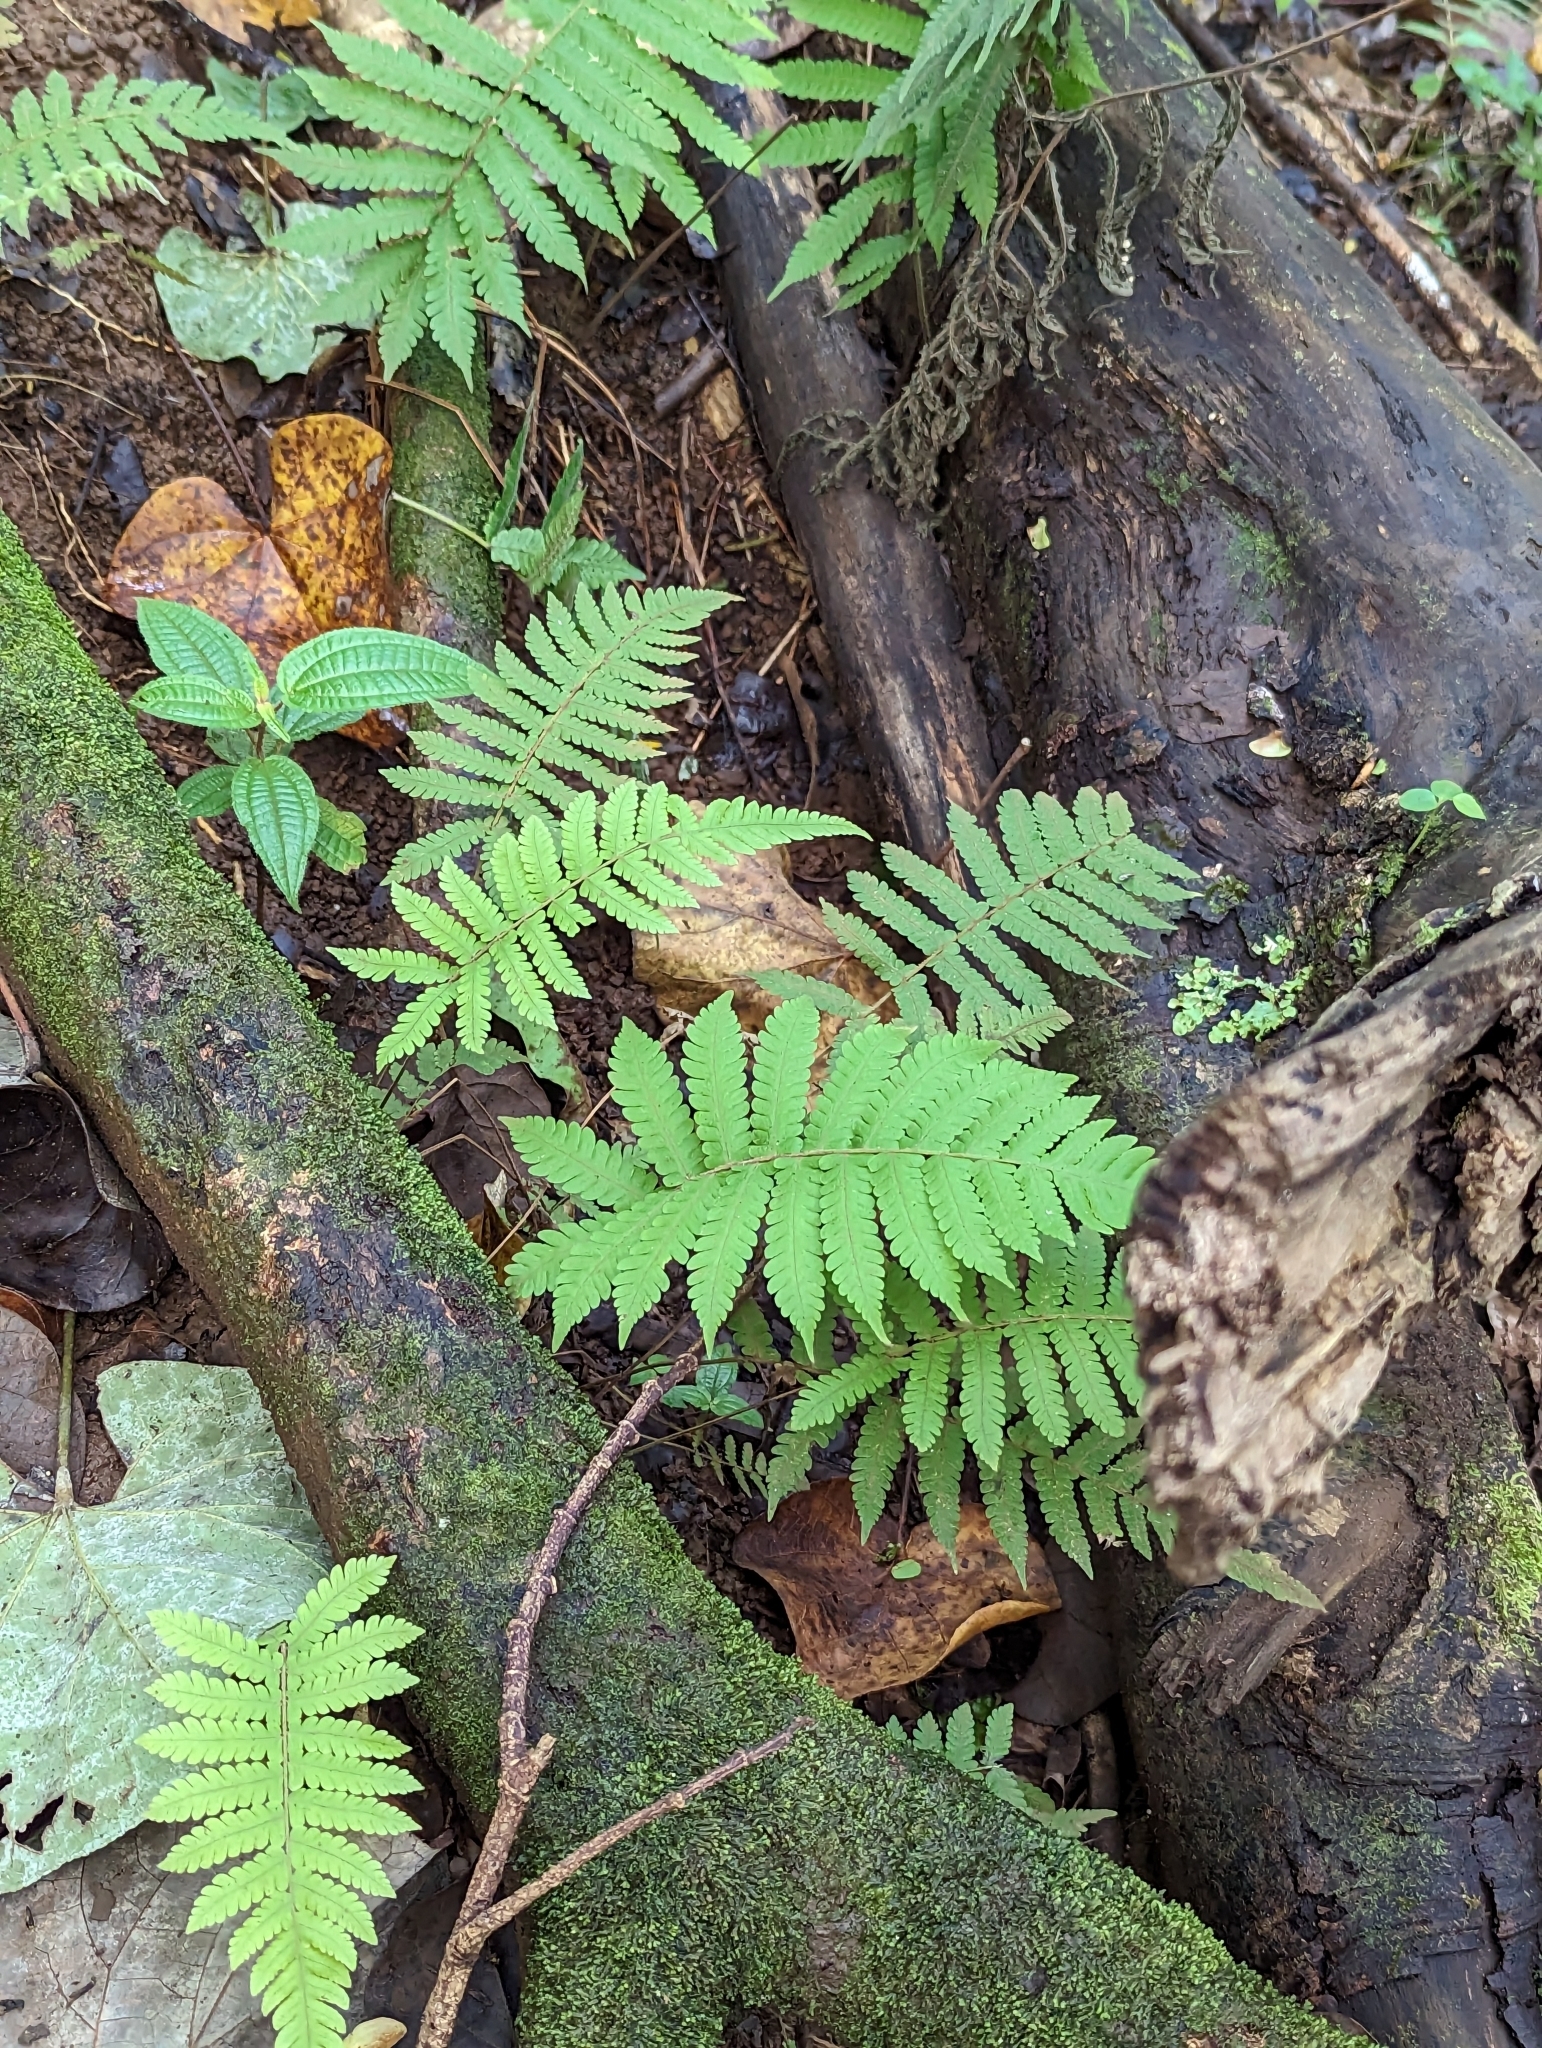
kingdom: Plantae
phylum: Tracheophyta
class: Polypodiopsida
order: Polypodiales
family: Thelypteridaceae
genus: Christella
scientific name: Christella parasitica
